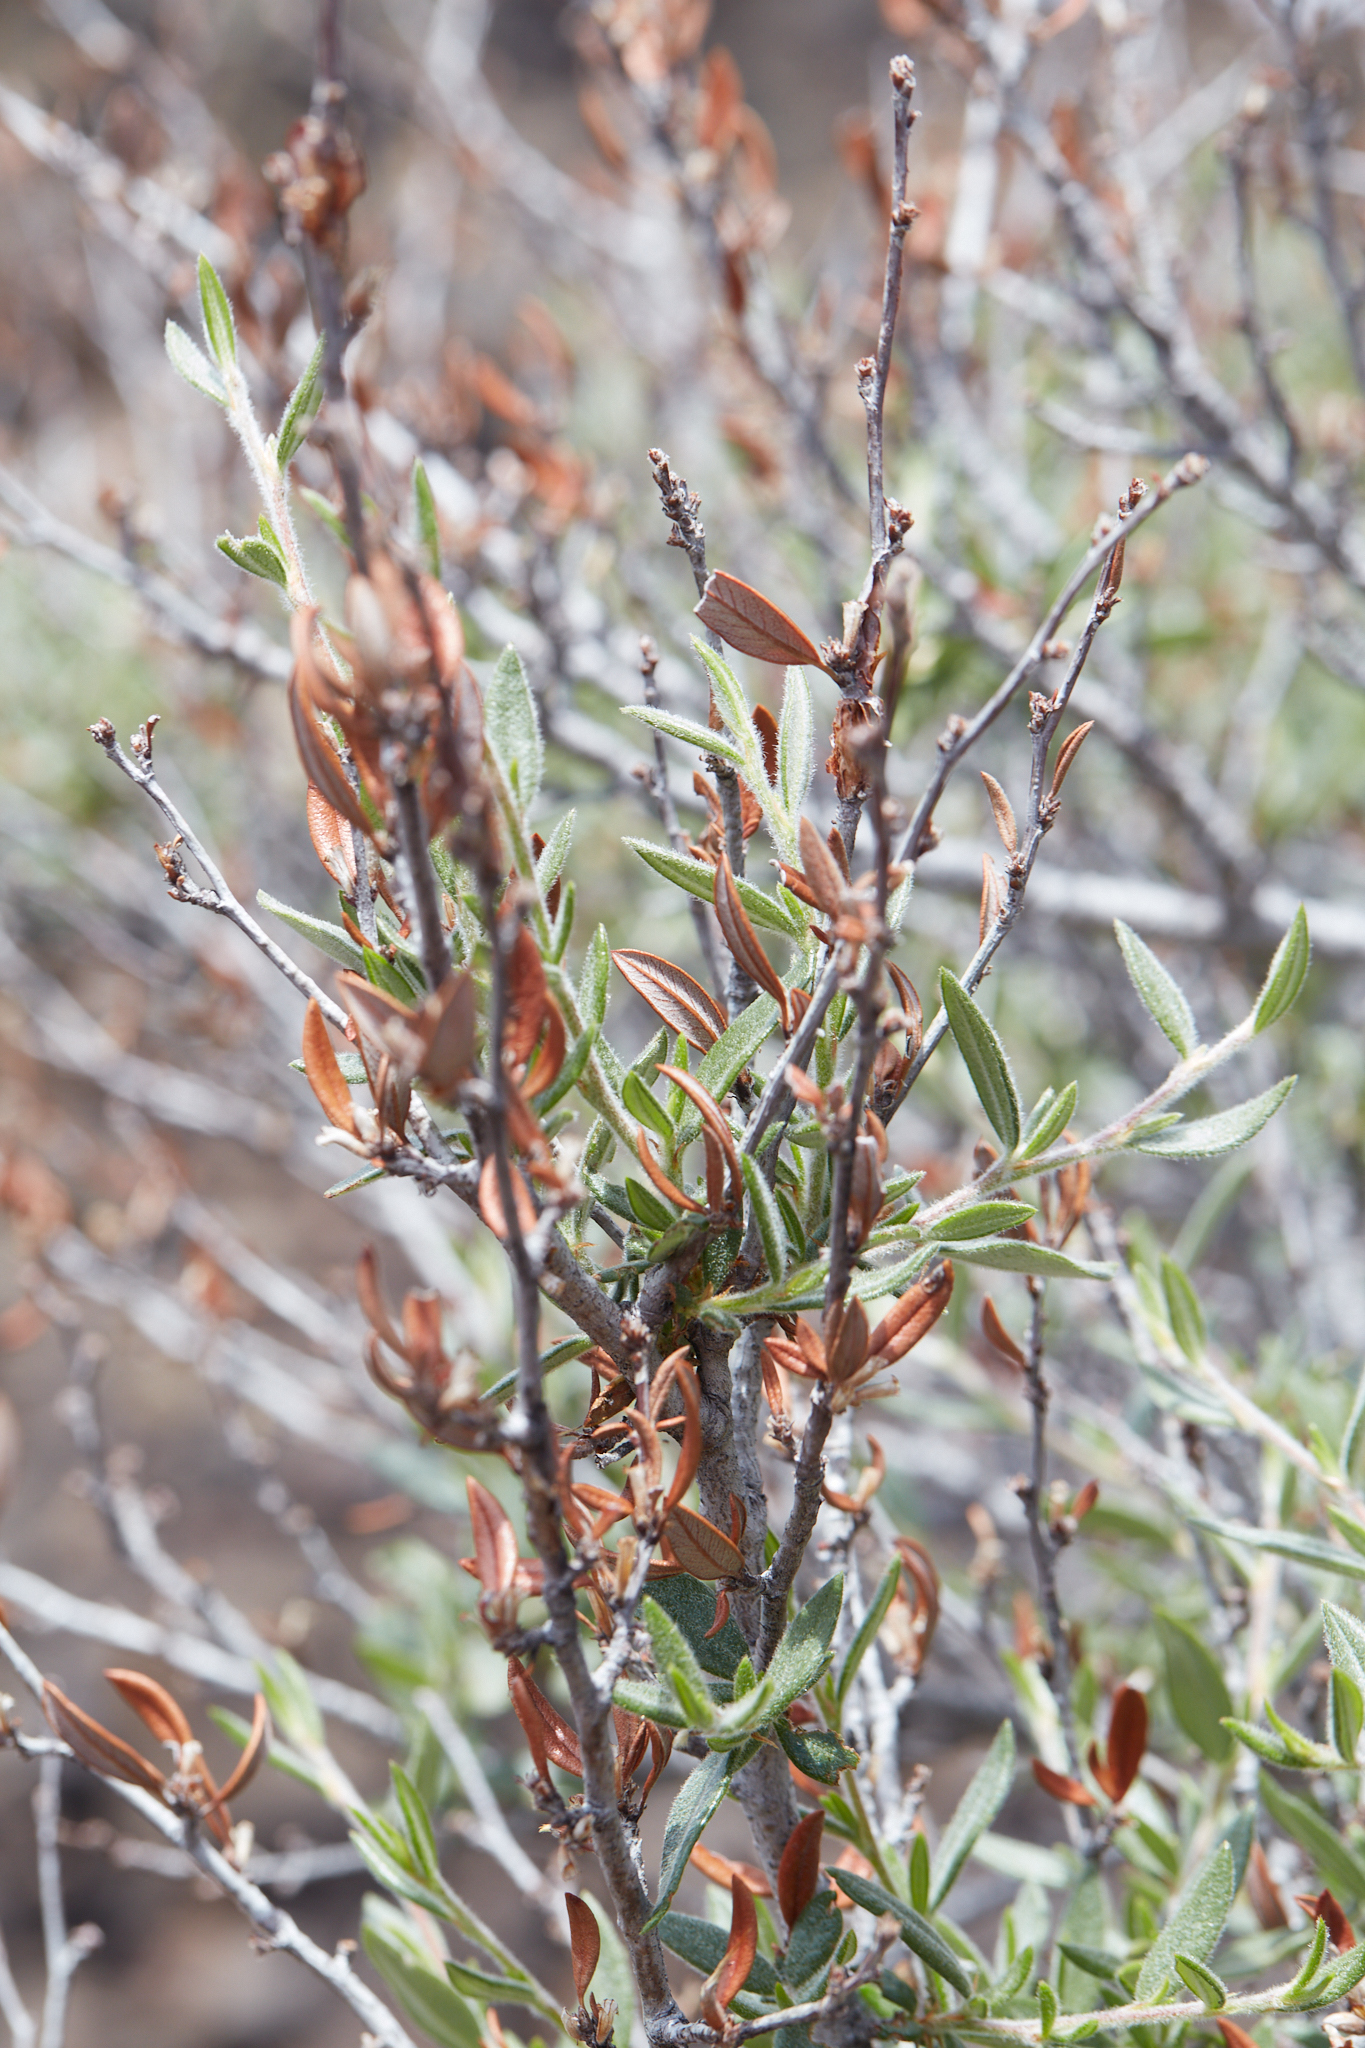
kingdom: Plantae
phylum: Tracheophyta
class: Magnoliopsida
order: Rosales
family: Rosaceae
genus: Cercocarpus
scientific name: Cercocarpus ledifolius
